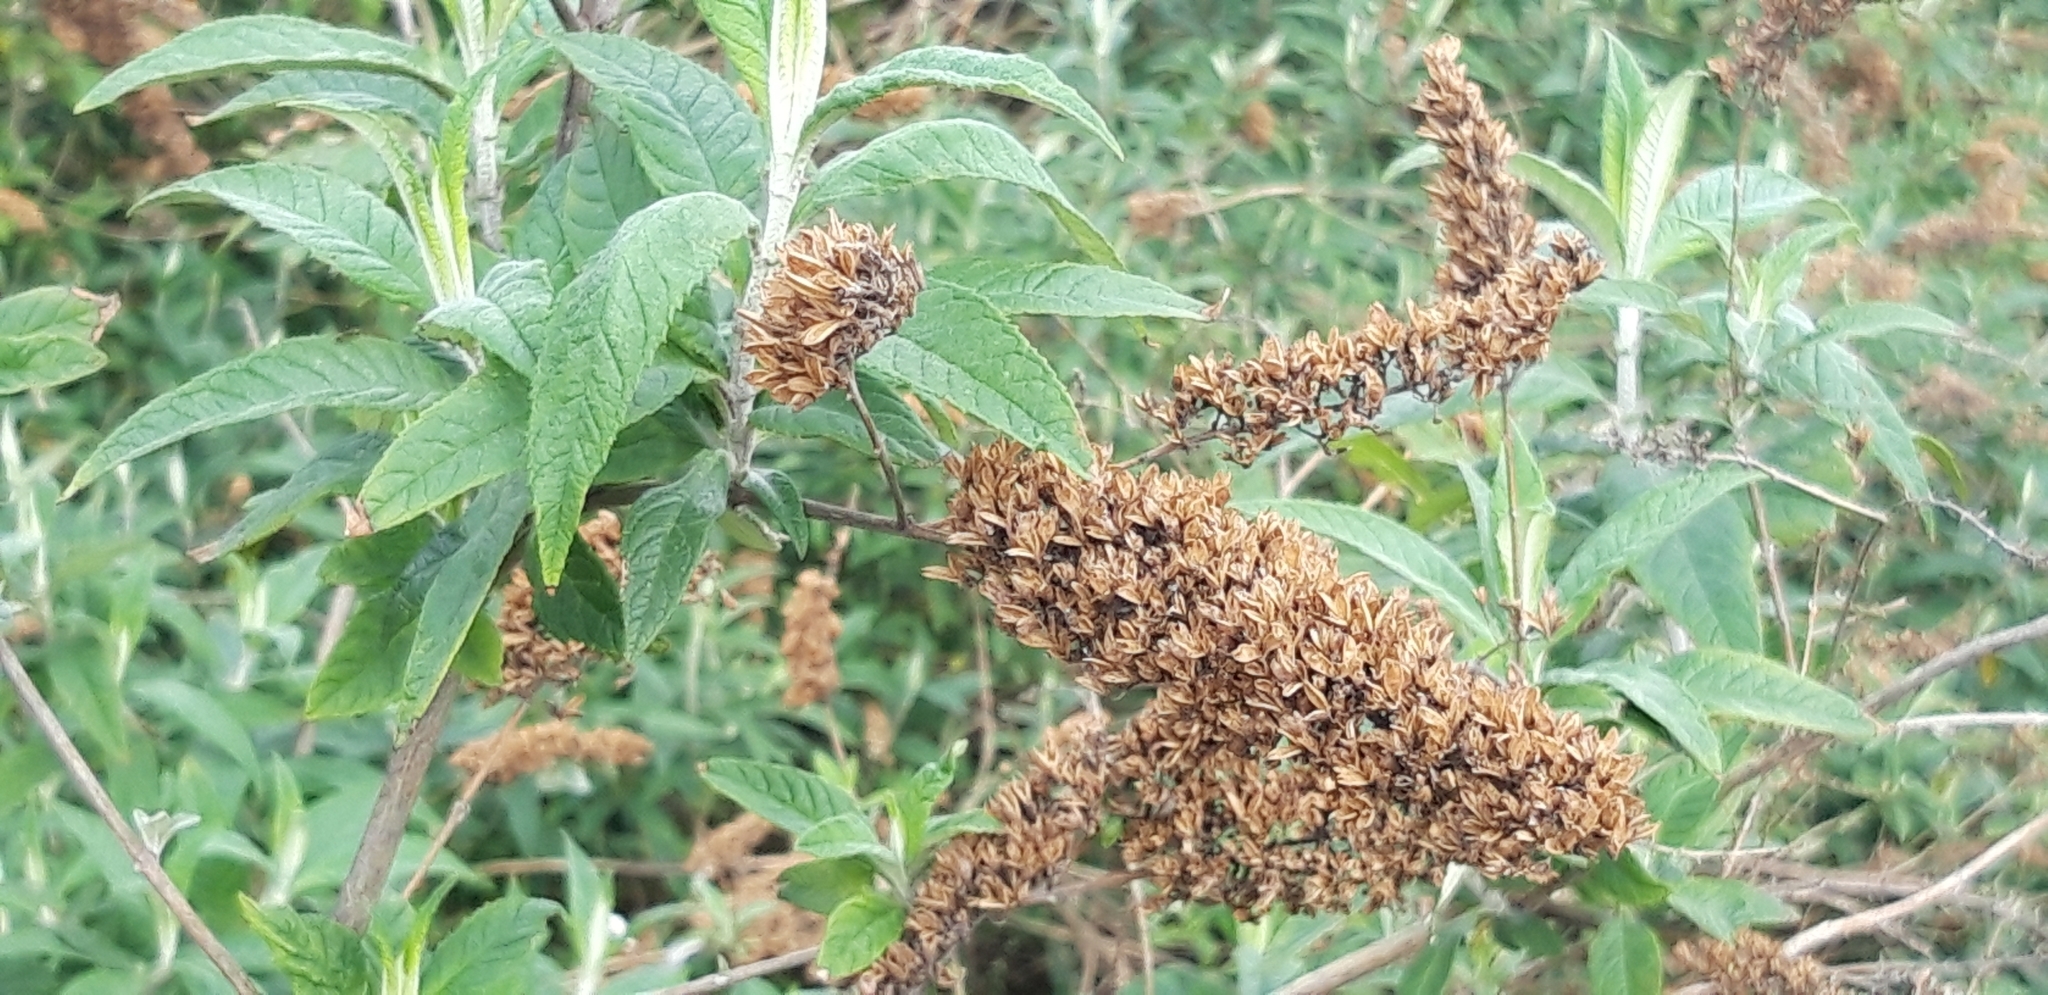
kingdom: Plantae
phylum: Tracheophyta
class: Magnoliopsida
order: Lamiales
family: Scrophulariaceae
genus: Buddleja
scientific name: Buddleja davidii
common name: Butterfly-bush
